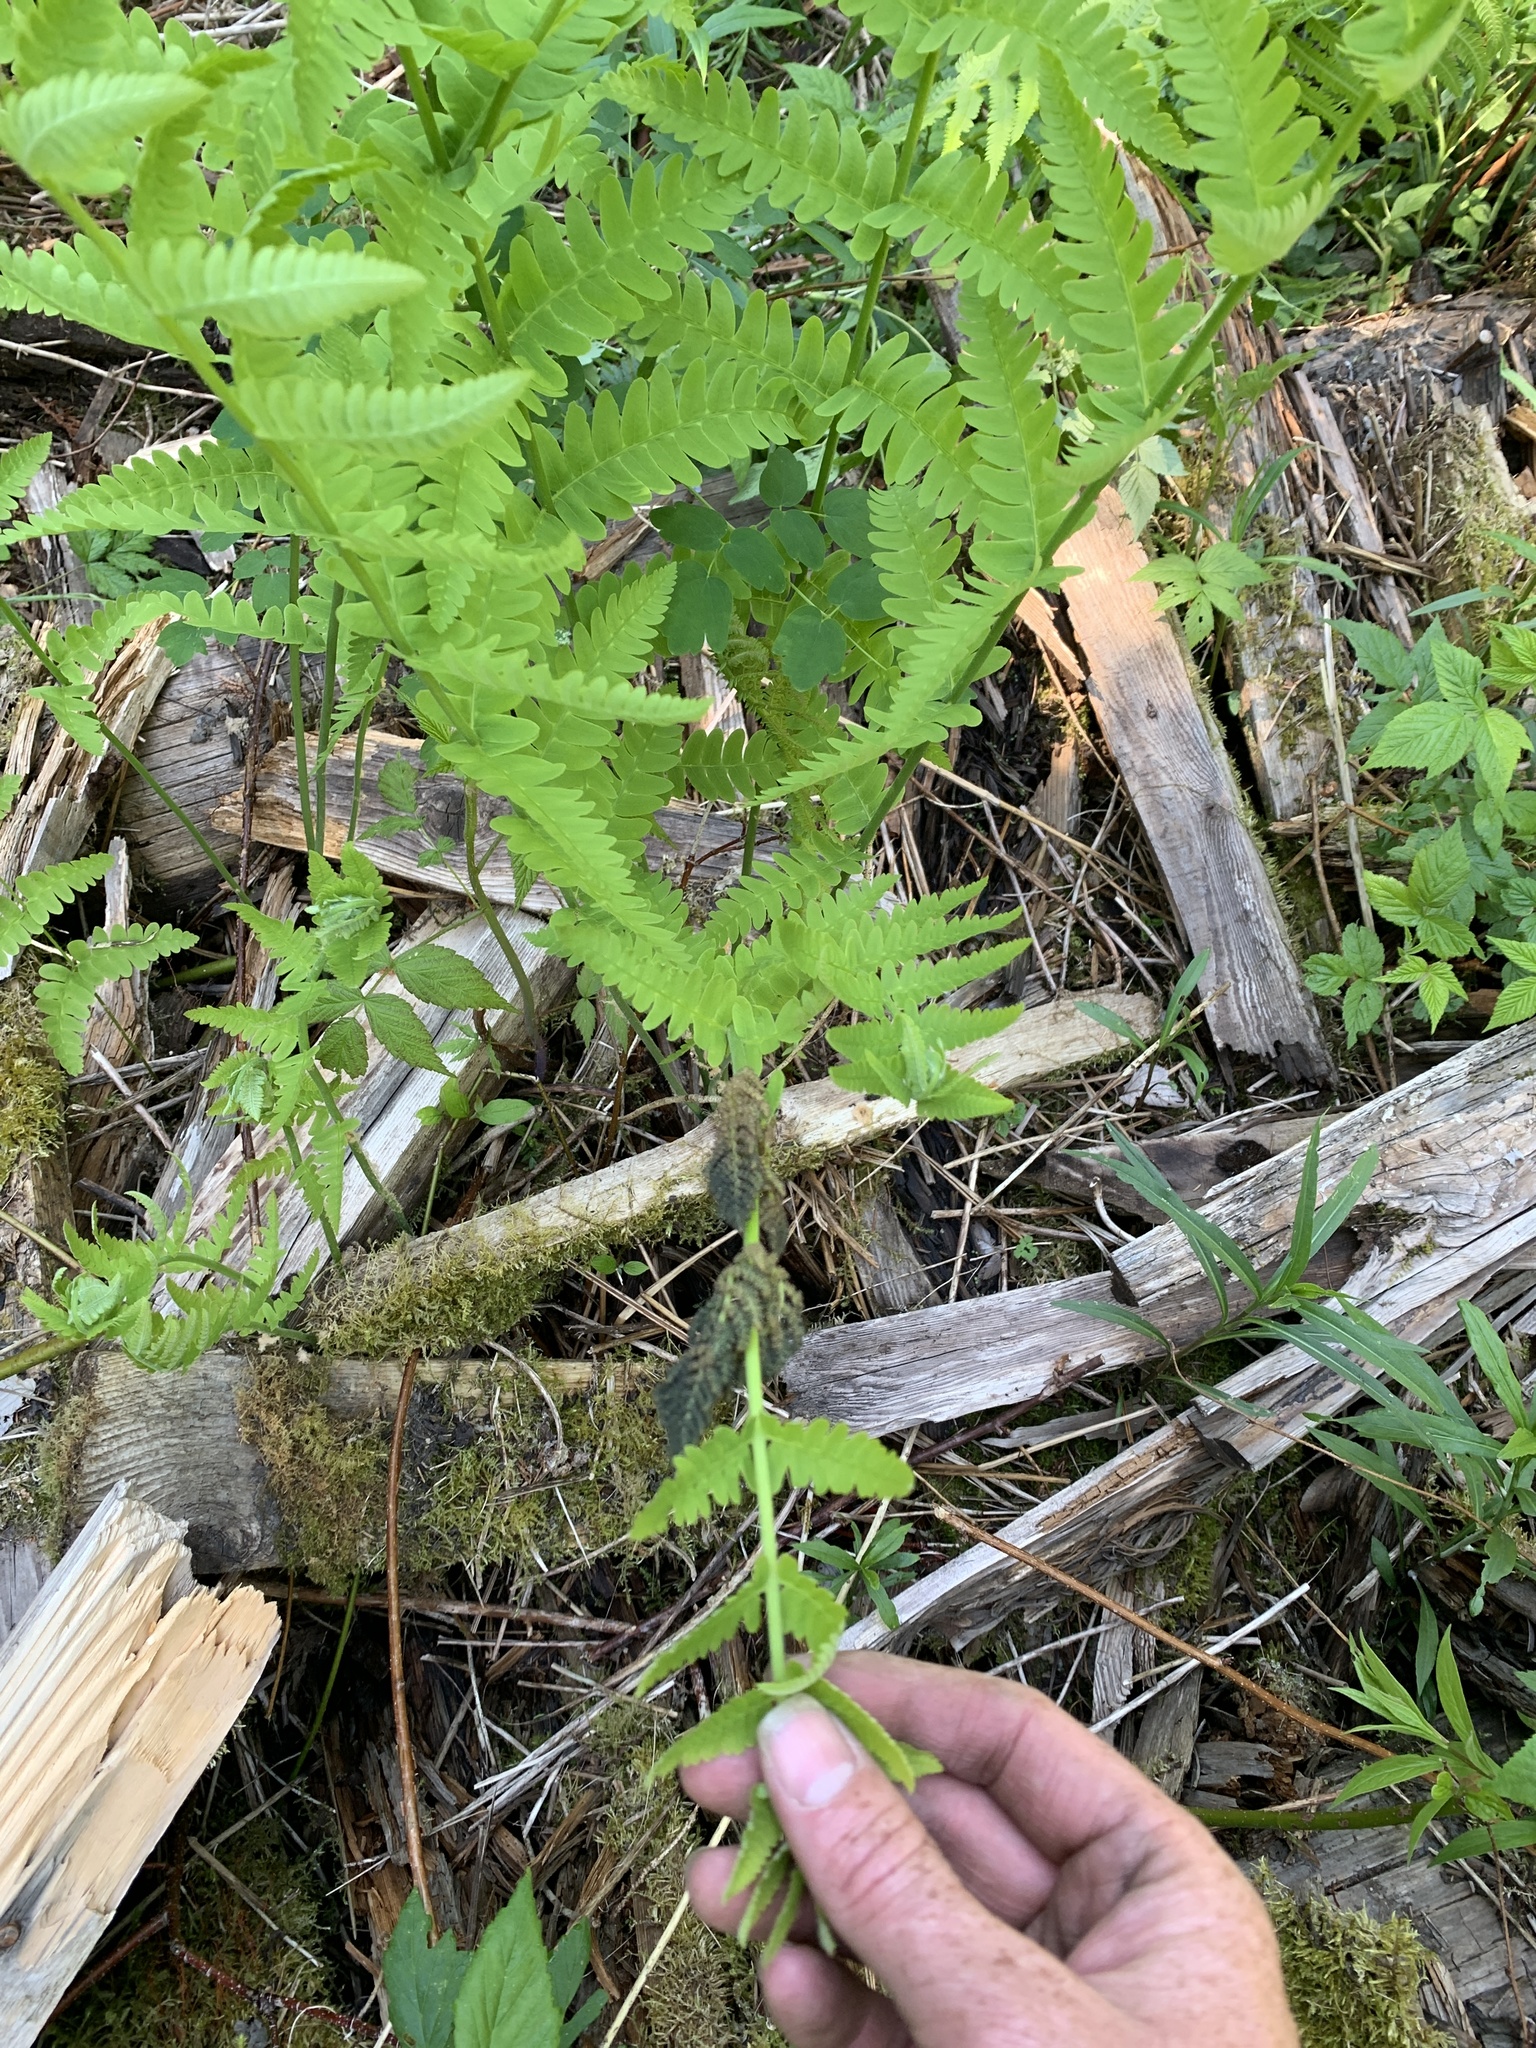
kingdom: Plantae
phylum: Tracheophyta
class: Polypodiopsida
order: Osmundales
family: Osmundaceae
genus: Claytosmunda
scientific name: Claytosmunda claytoniana
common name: Clayton's fern
